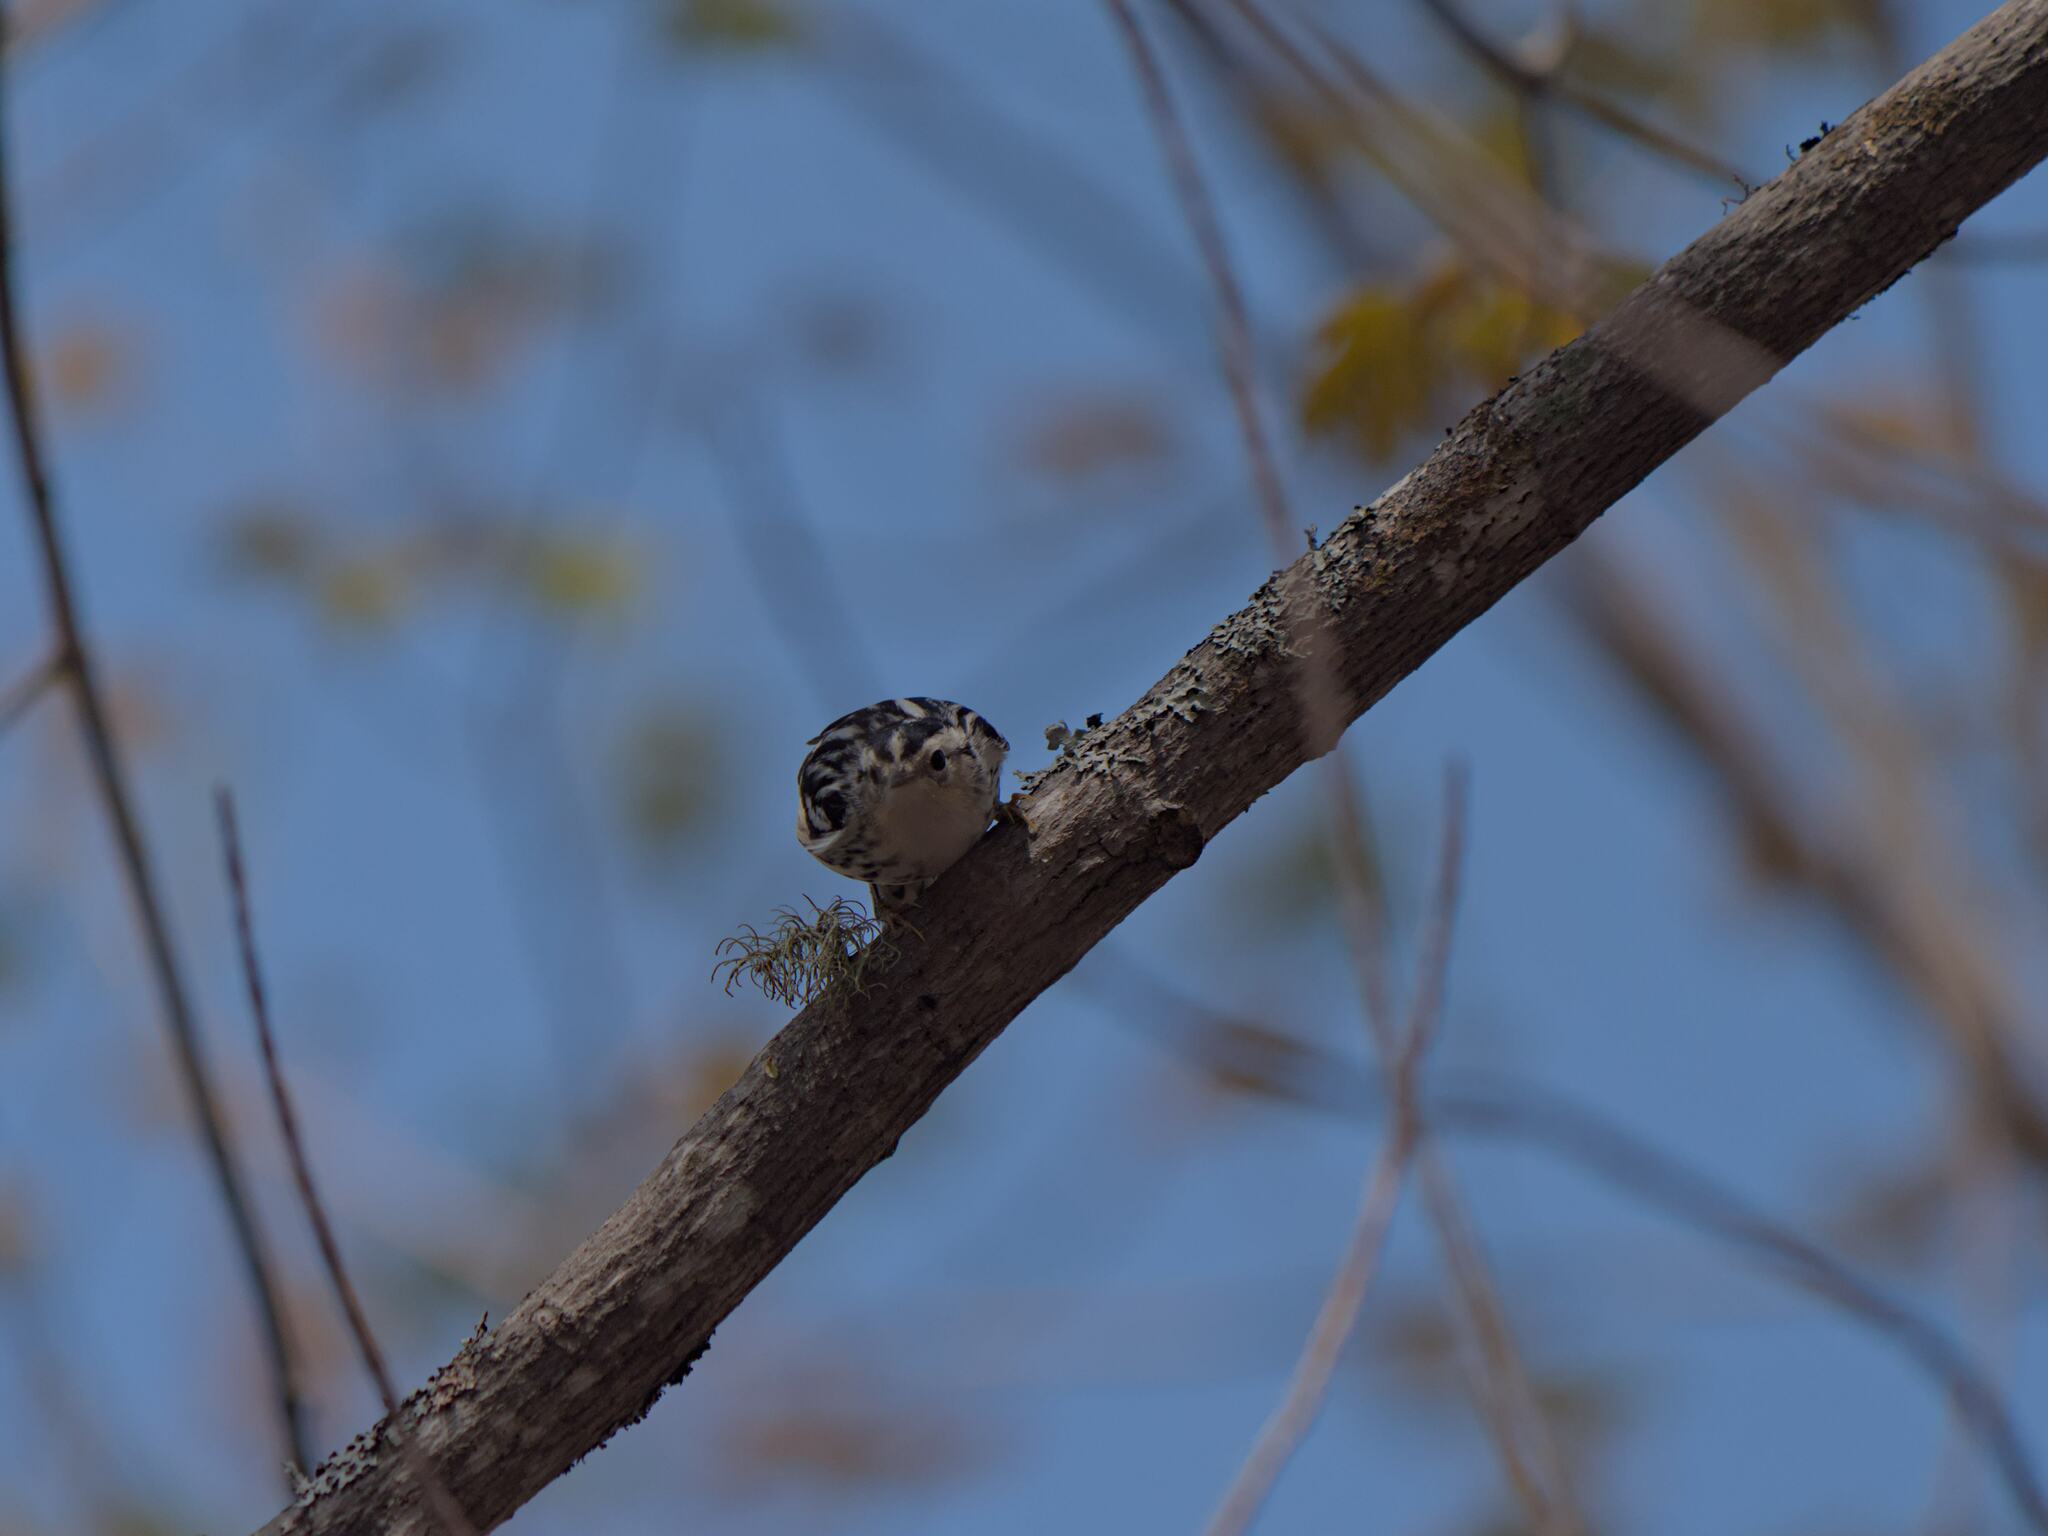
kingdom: Animalia
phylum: Chordata
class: Aves
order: Passeriformes
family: Parulidae
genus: Mniotilta
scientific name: Mniotilta varia
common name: Black-and-white warbler
